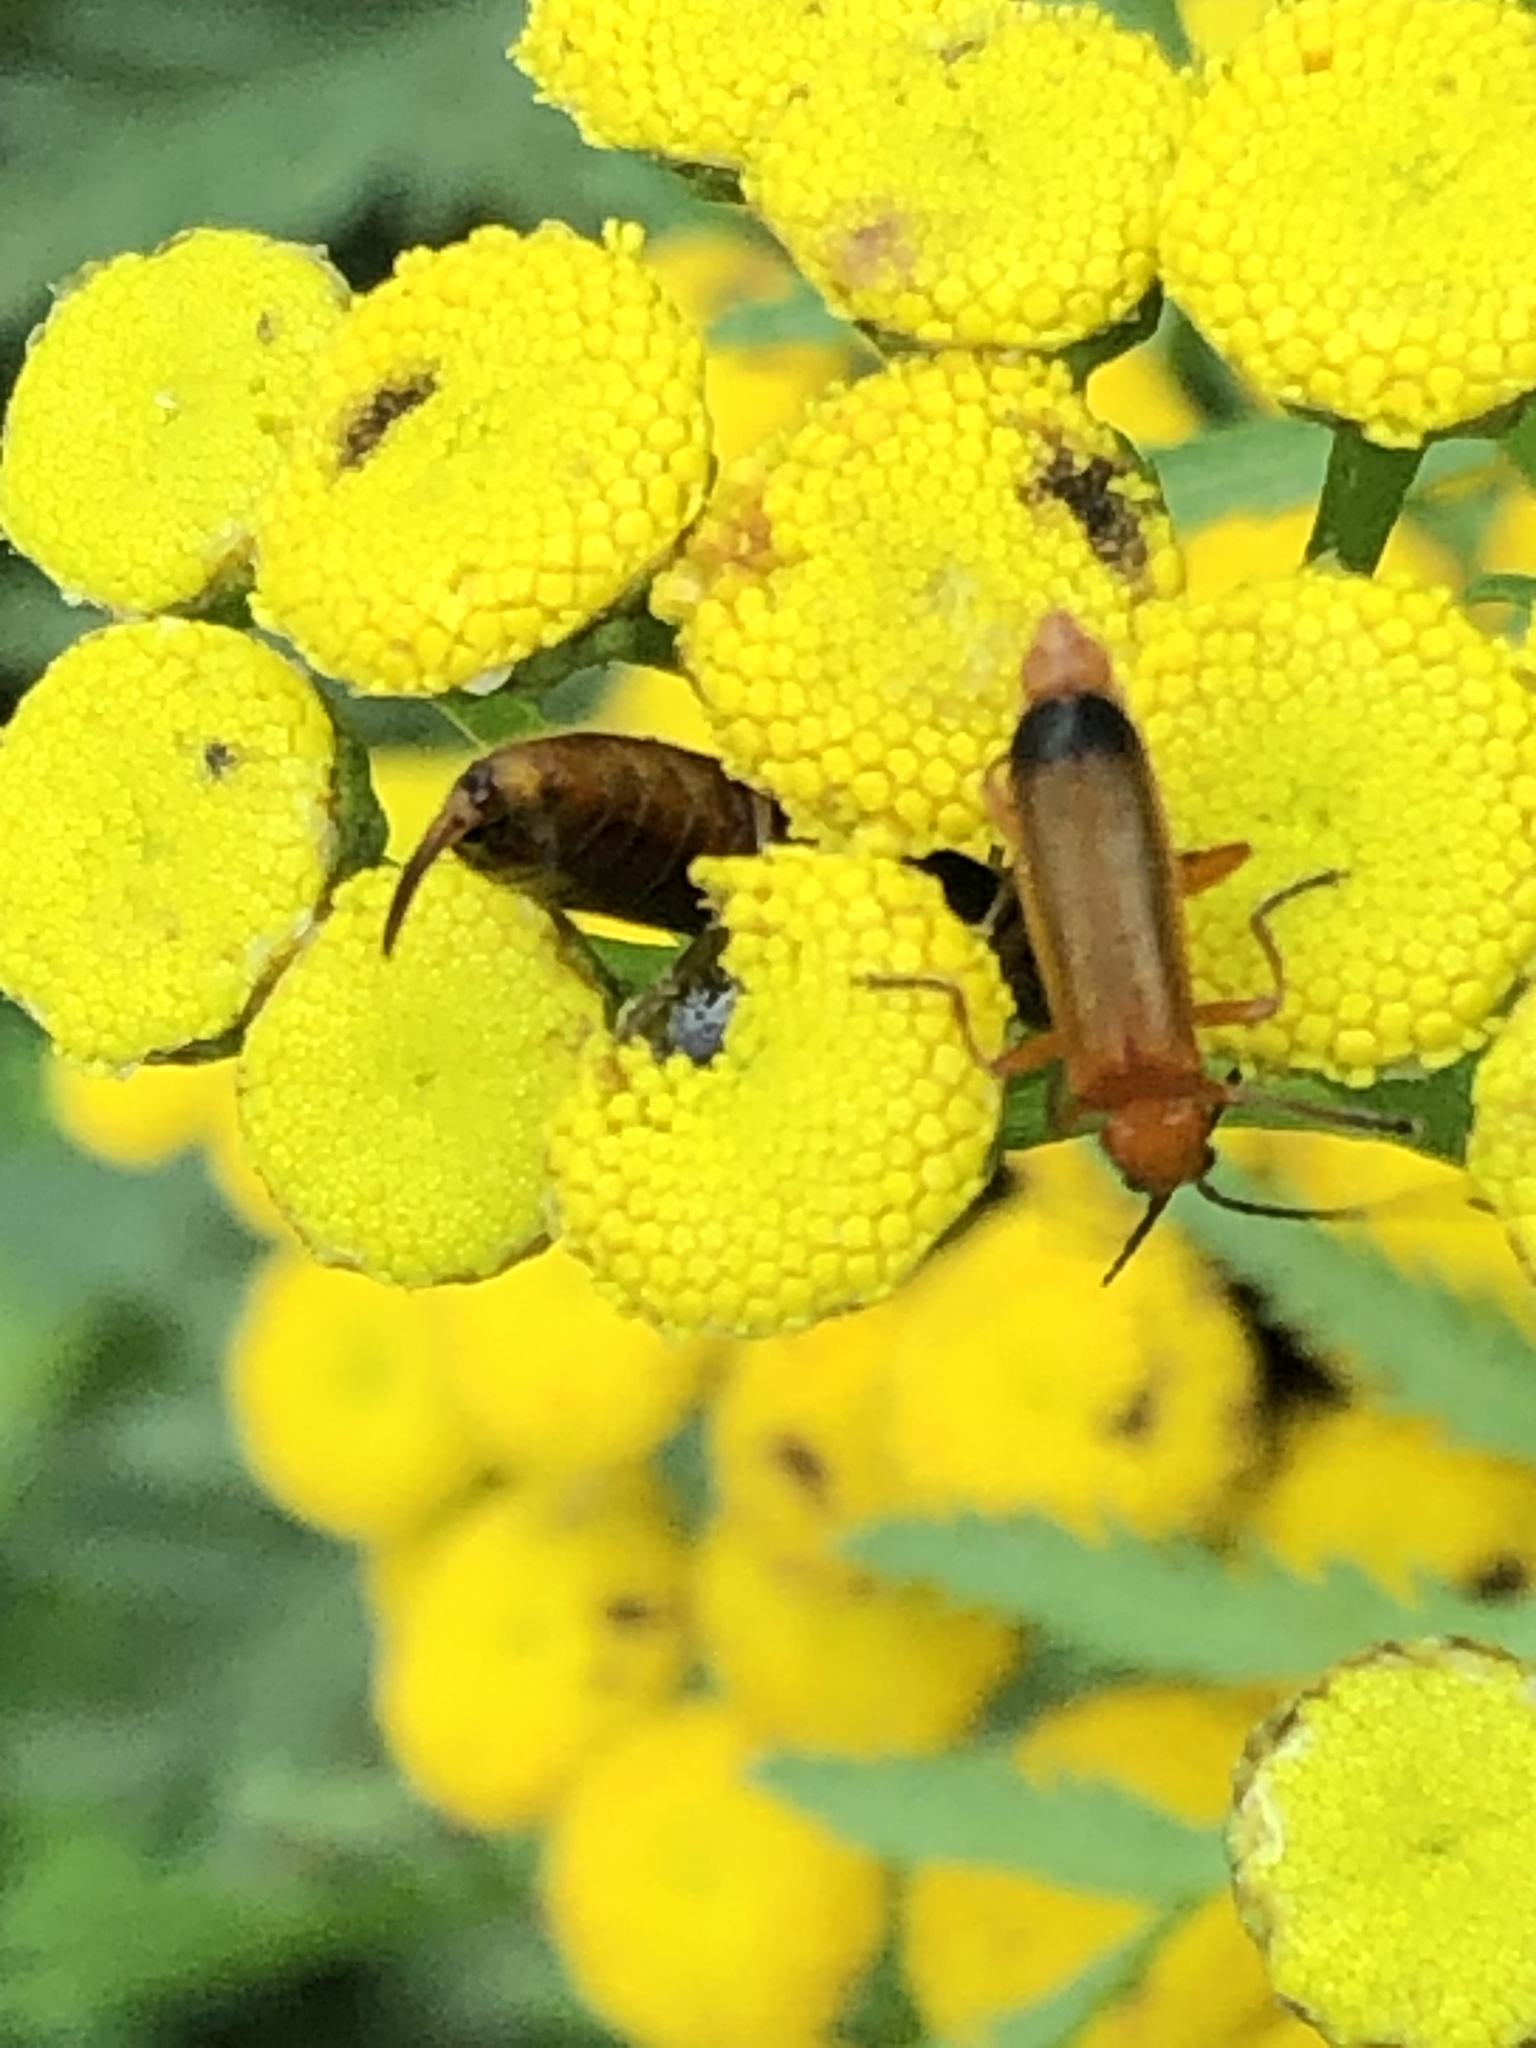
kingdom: Animalia
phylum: Arthropoda
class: Insecta
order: Coleoptera
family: Cantharidae
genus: Rhagonycha
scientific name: Rhagonycha fulva
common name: Common red soldier beetle
